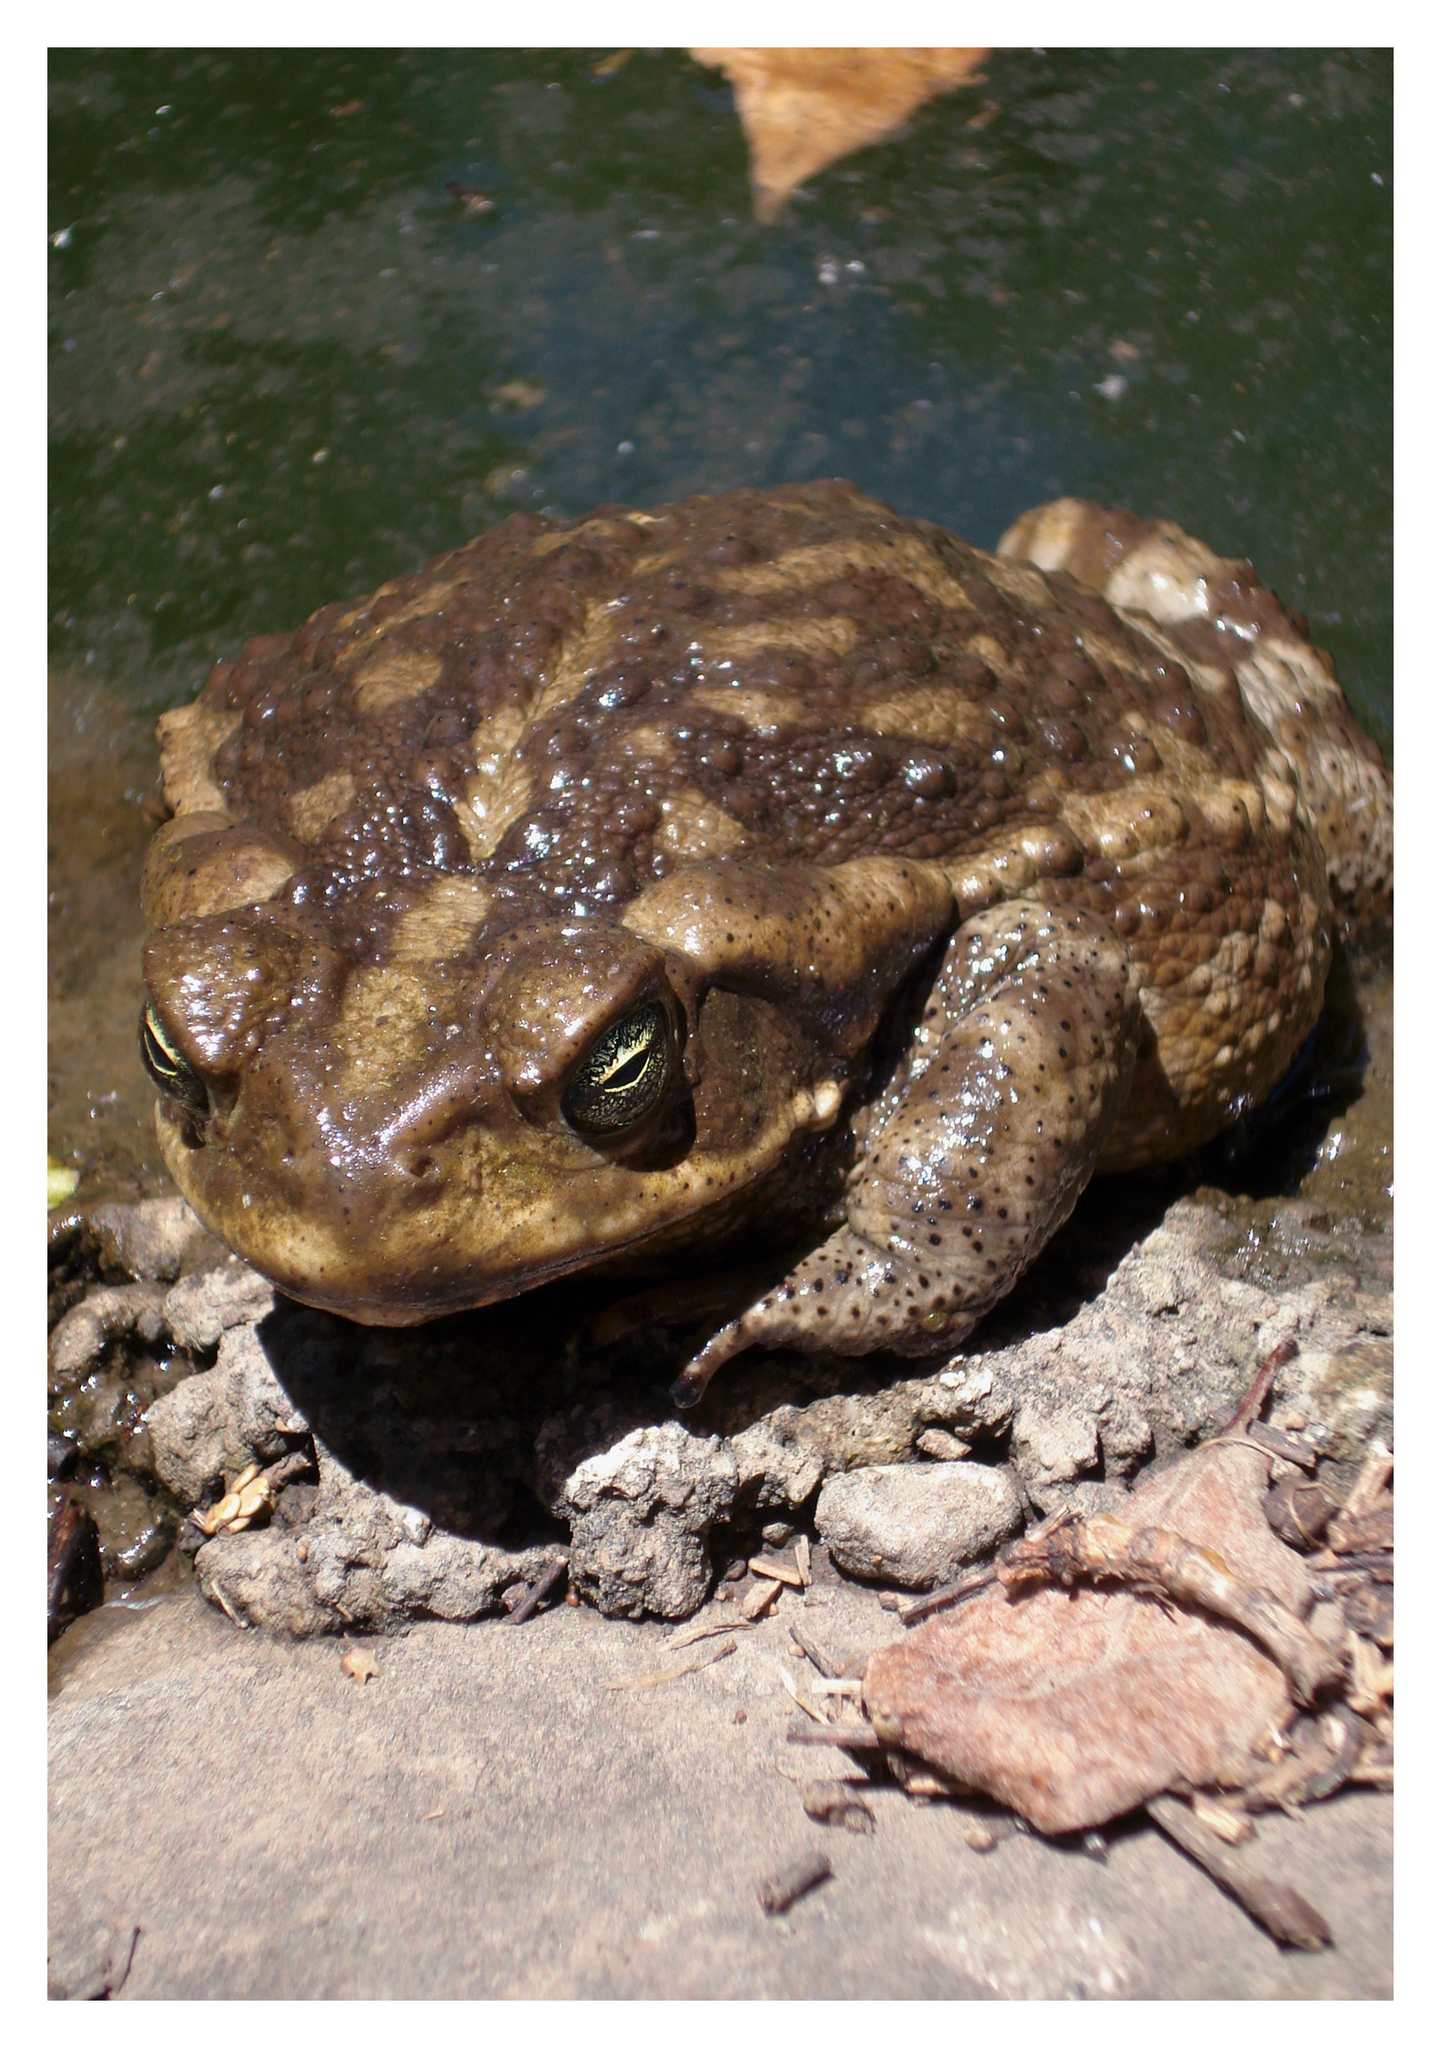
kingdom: Animalia
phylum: Chordata
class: Amphibia
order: Anura
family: Bufonidae
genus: Rhinella
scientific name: Rhinella arenarum
